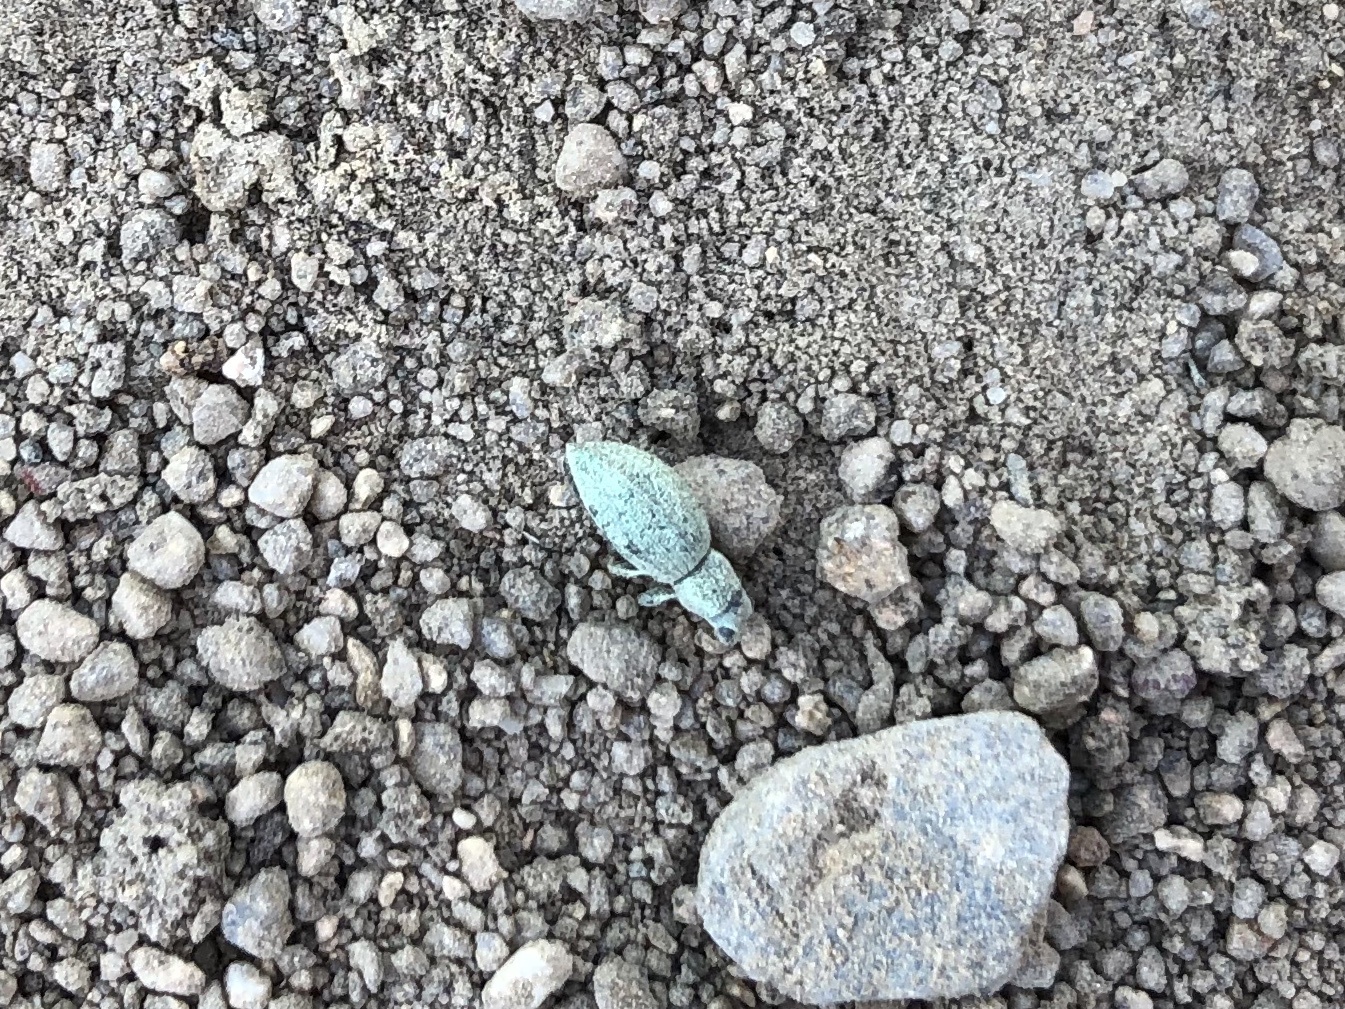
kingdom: Animalia
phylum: Arthropoda
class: Insecta
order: Coleoptera
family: Curculionidae
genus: Eusomus
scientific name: Eusomus ovulum
